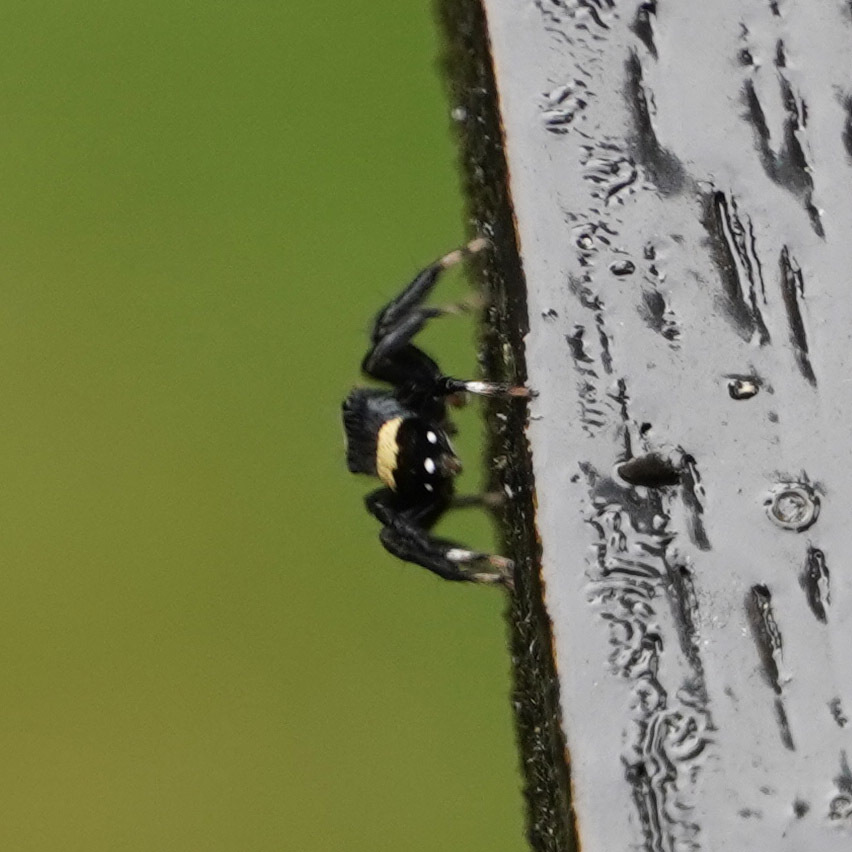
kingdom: Animalia
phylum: Arthropoda
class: Arachnida
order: Araneae
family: Salticidae
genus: Thorelliola
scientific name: Thorelliola ensifera
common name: Jumping spider
